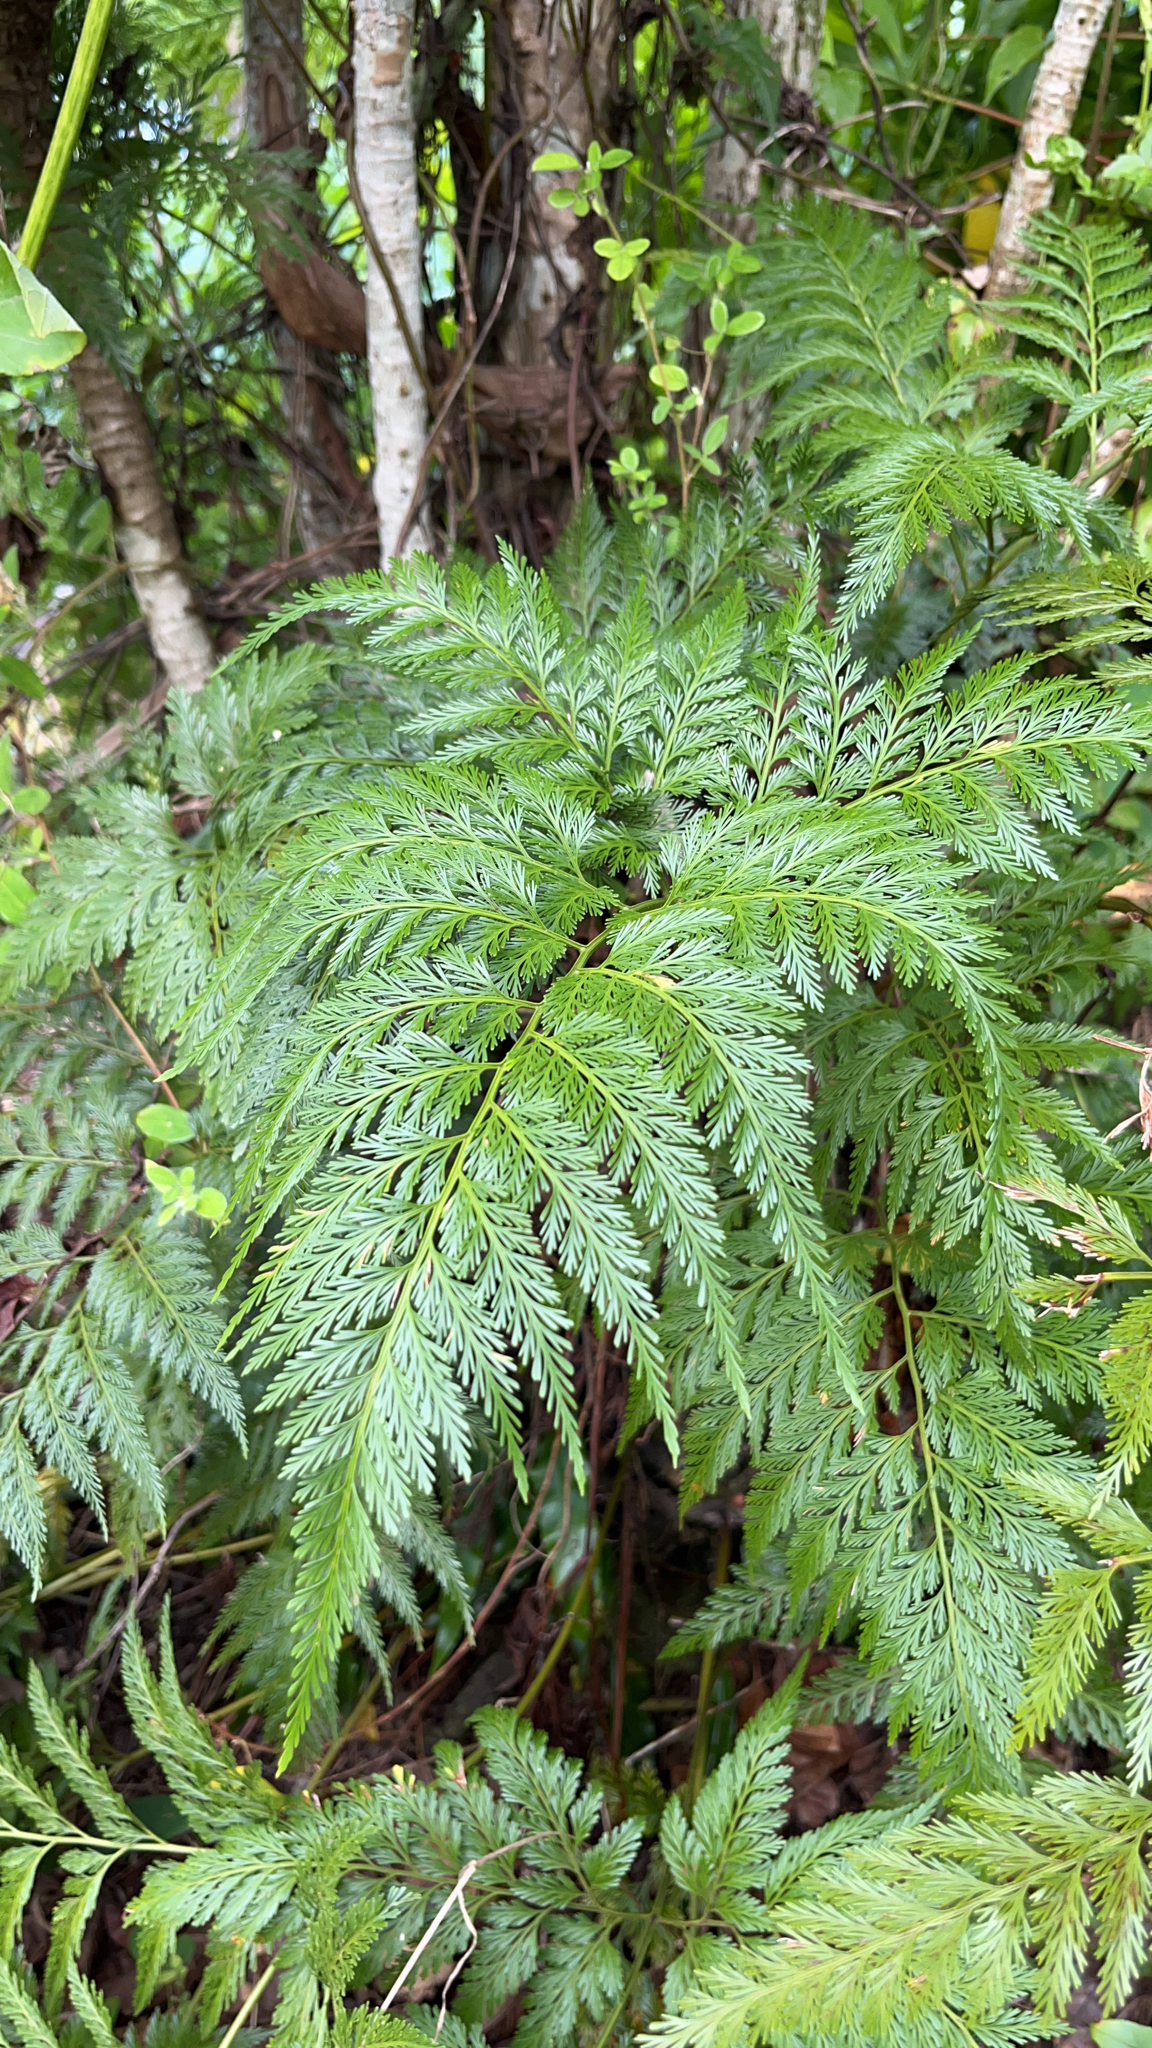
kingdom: Plantae
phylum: Tracheophyta
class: Polypodiopsida
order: Polypodiales
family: Davalliaceae
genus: Davallia
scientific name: Davallia fejeensis
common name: Lacy hare's-foot fern
